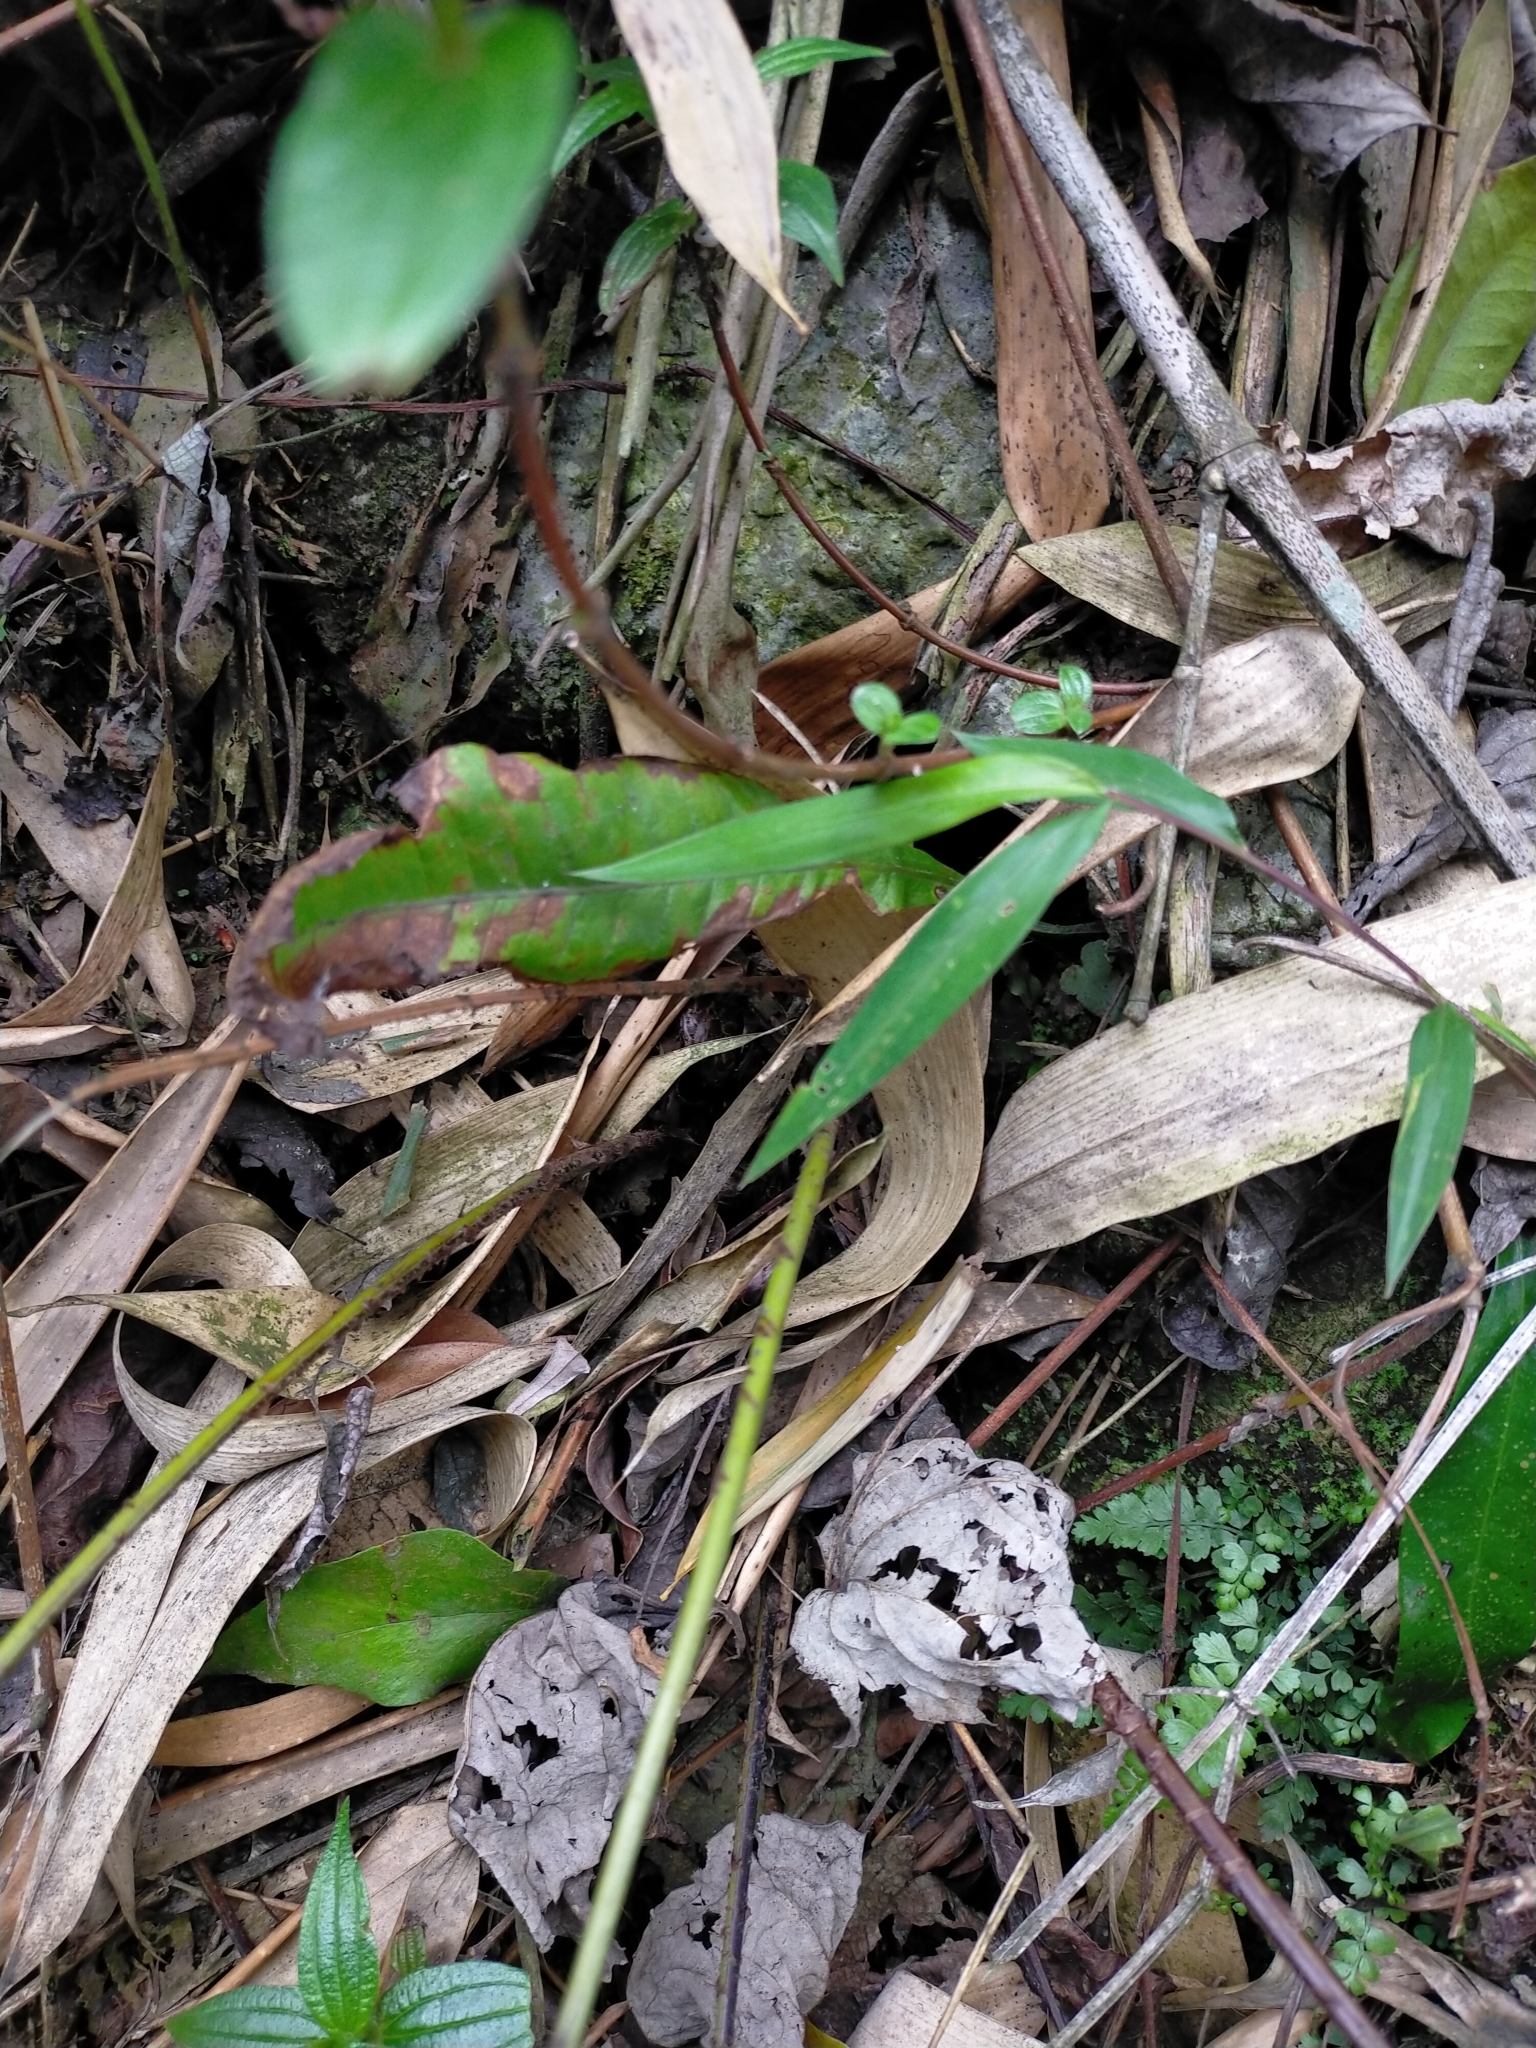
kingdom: Plantae
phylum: Tracheophyta
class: Polypodiopsida
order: Polypodiales
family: Dryopteridaceae
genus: Cyrtomium
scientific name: Cyrtomium devexiscapulae
